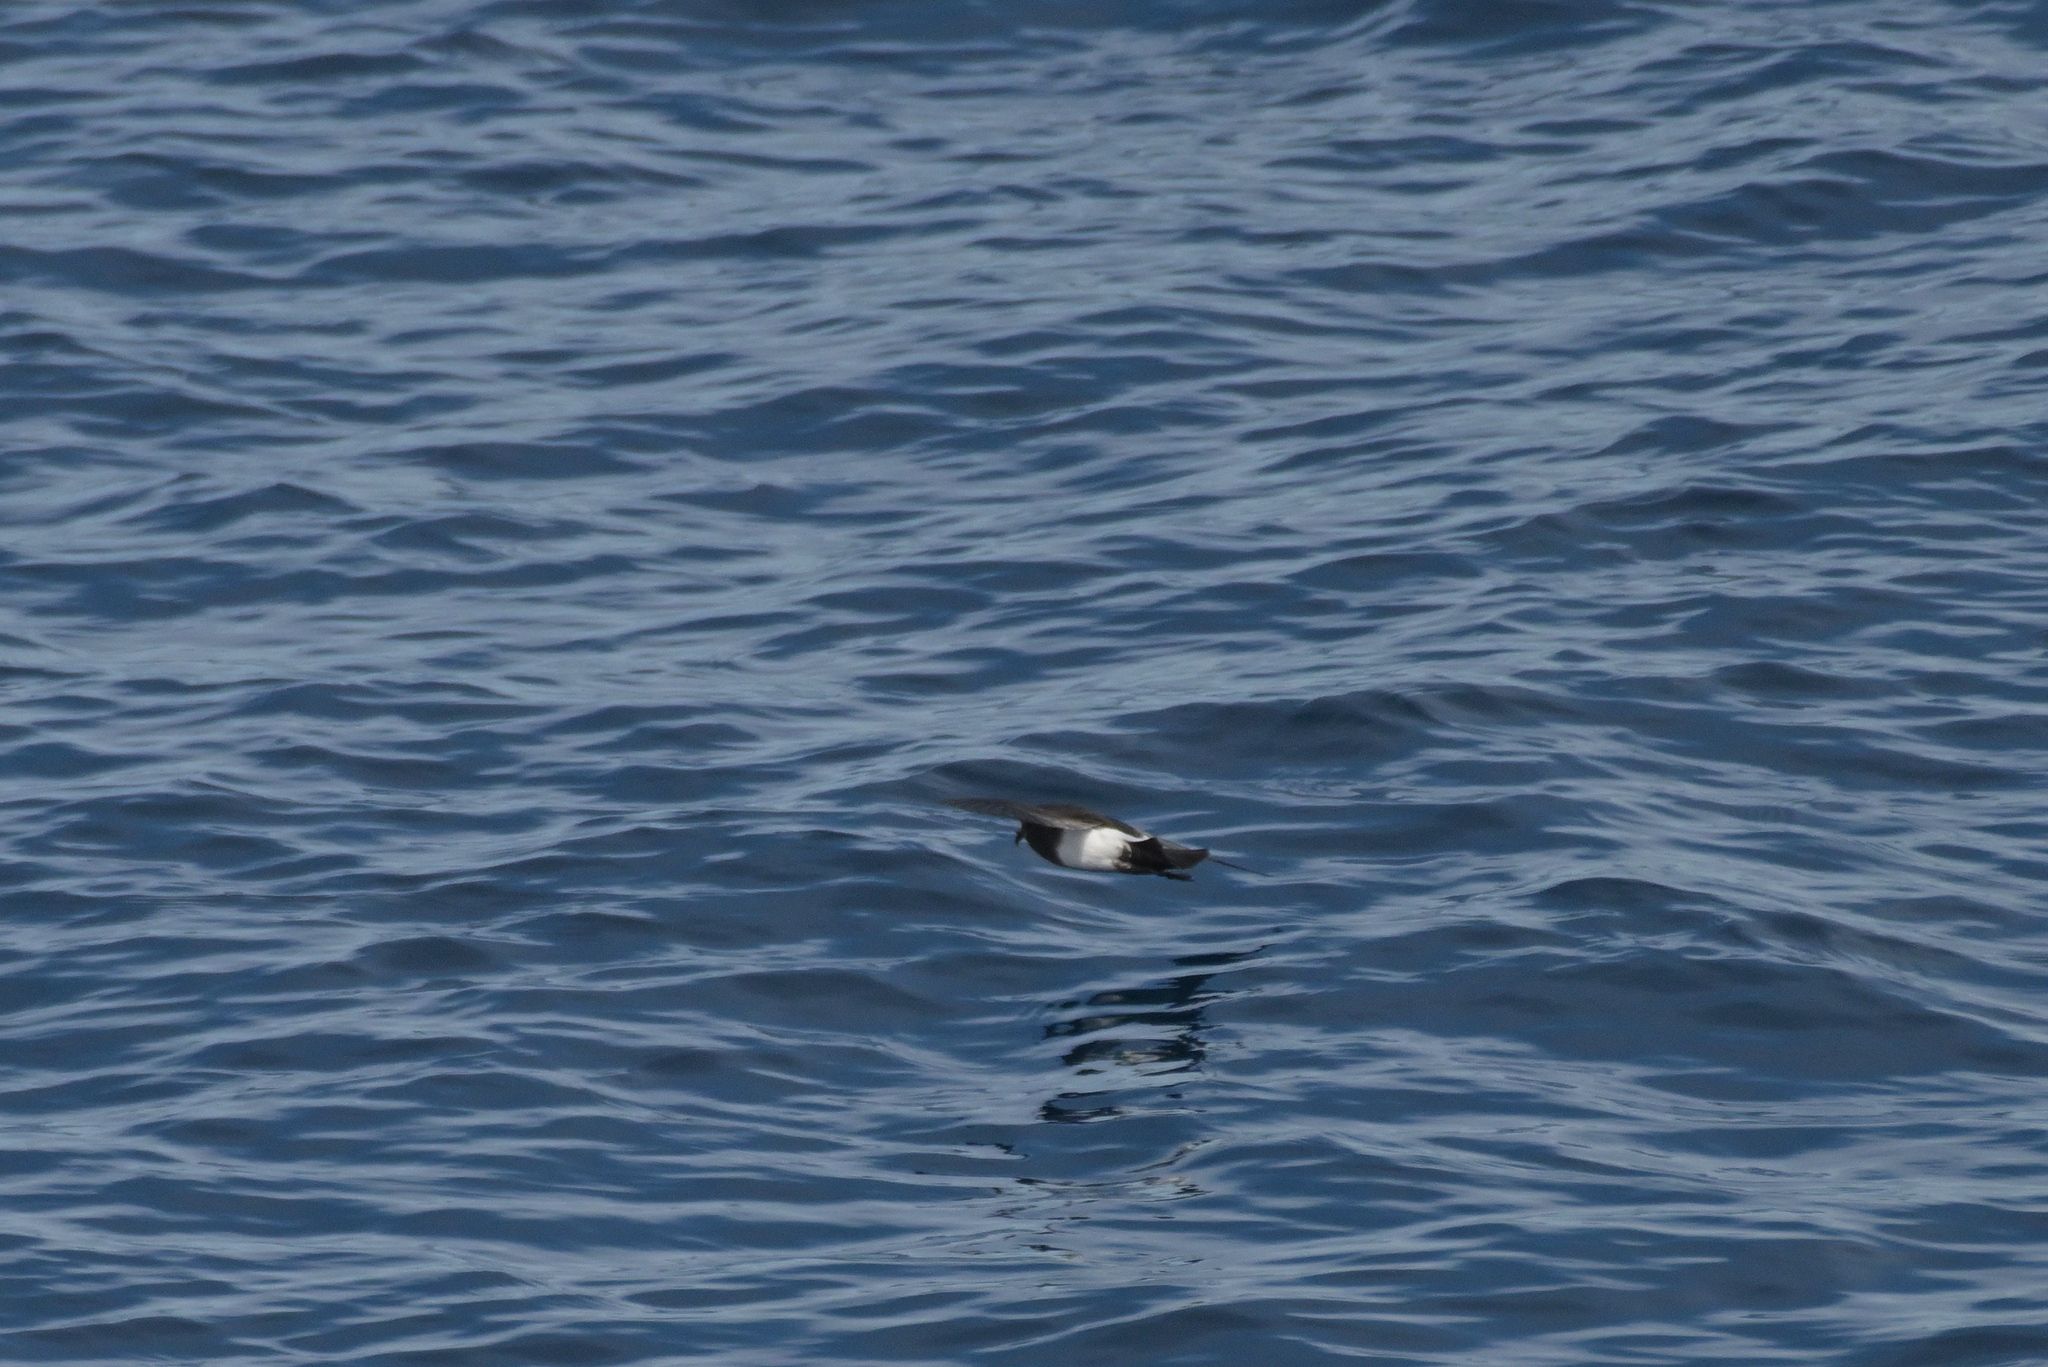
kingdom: Animalia
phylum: Chordata
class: Aves
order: Procellariiformes
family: Hydrobatidae
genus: Fregetta
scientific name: Fregetta tropica
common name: Black-bellied storm-petrel
